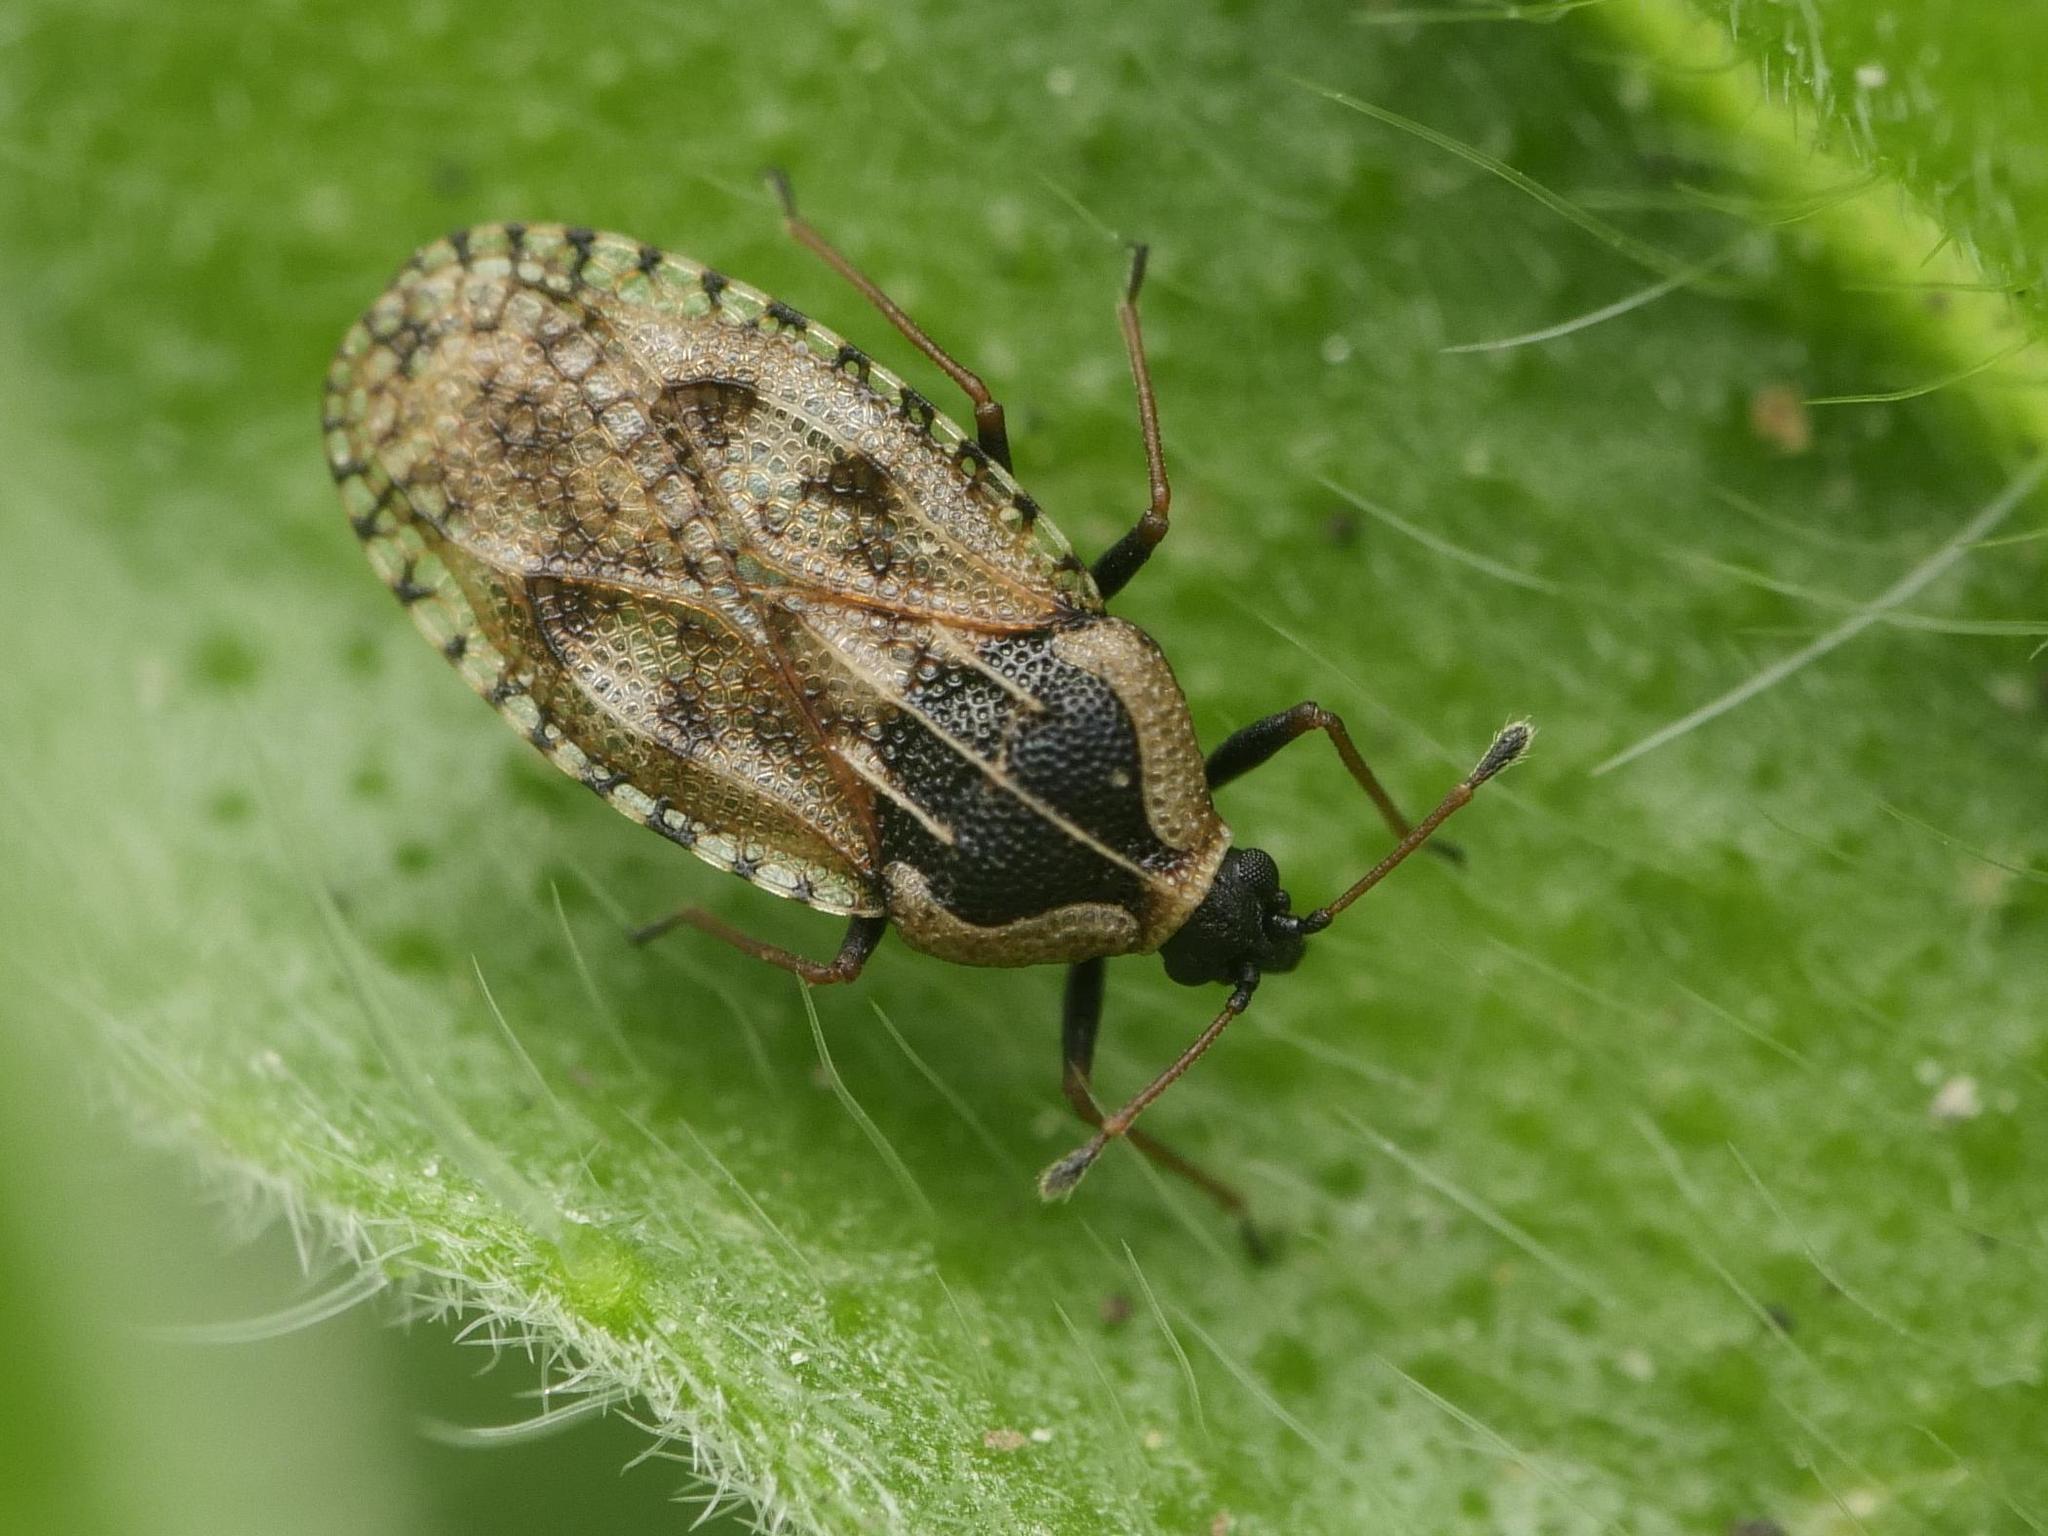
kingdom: Animalia
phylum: Arthropoda
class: Insecta
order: Hemiptera
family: Tingidae
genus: Dictyla
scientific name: Dictyla echii
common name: Lace bug
